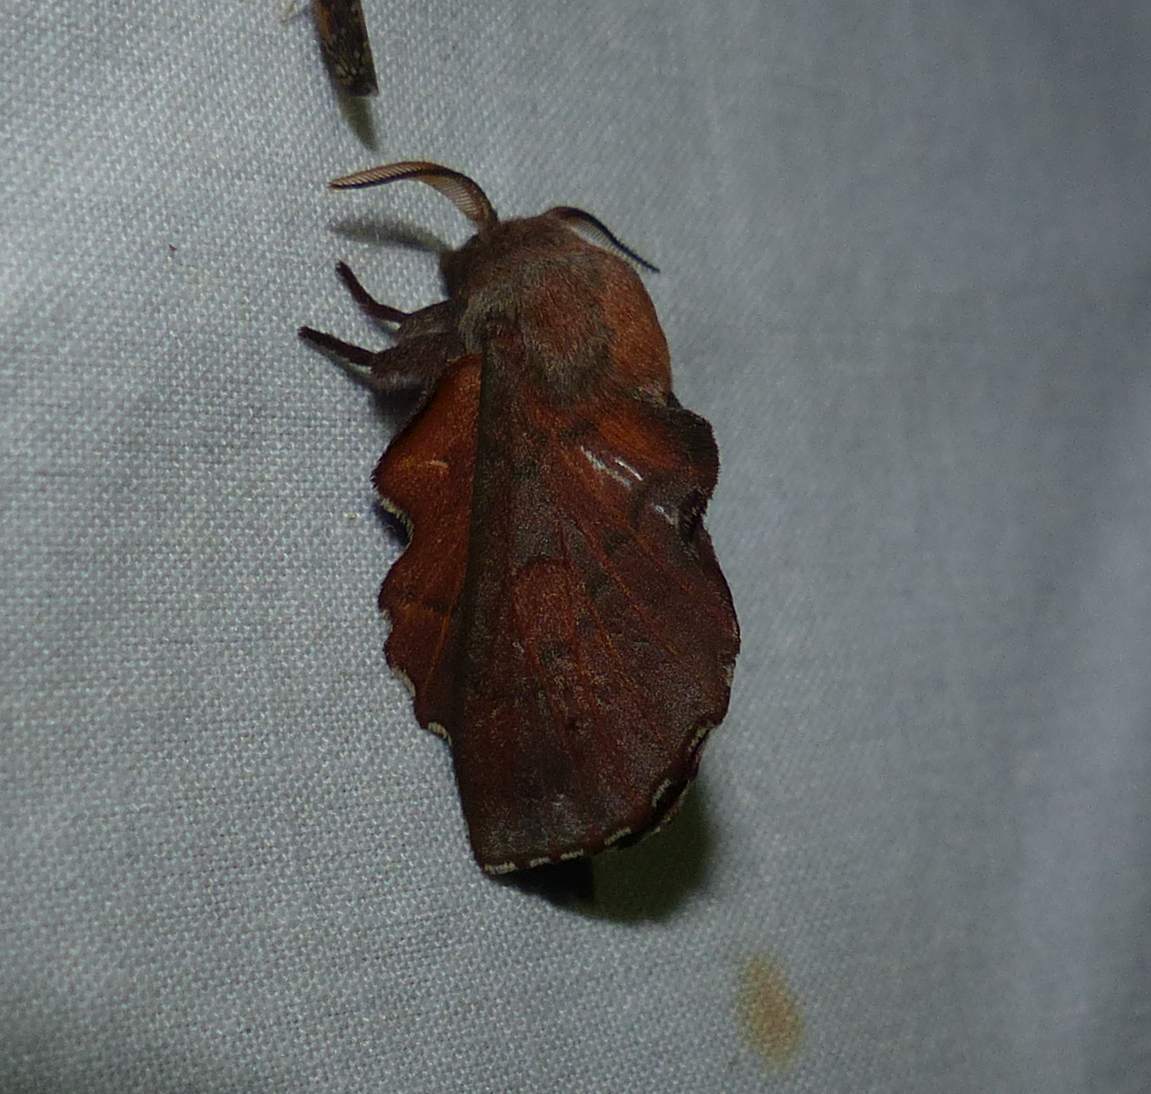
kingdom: Animalia
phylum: Arthropoda
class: Insecta
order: Lepidoptera
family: Lasiocampidae
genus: Phyllodesma
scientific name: Phyllodesma americana
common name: American lappet moth
